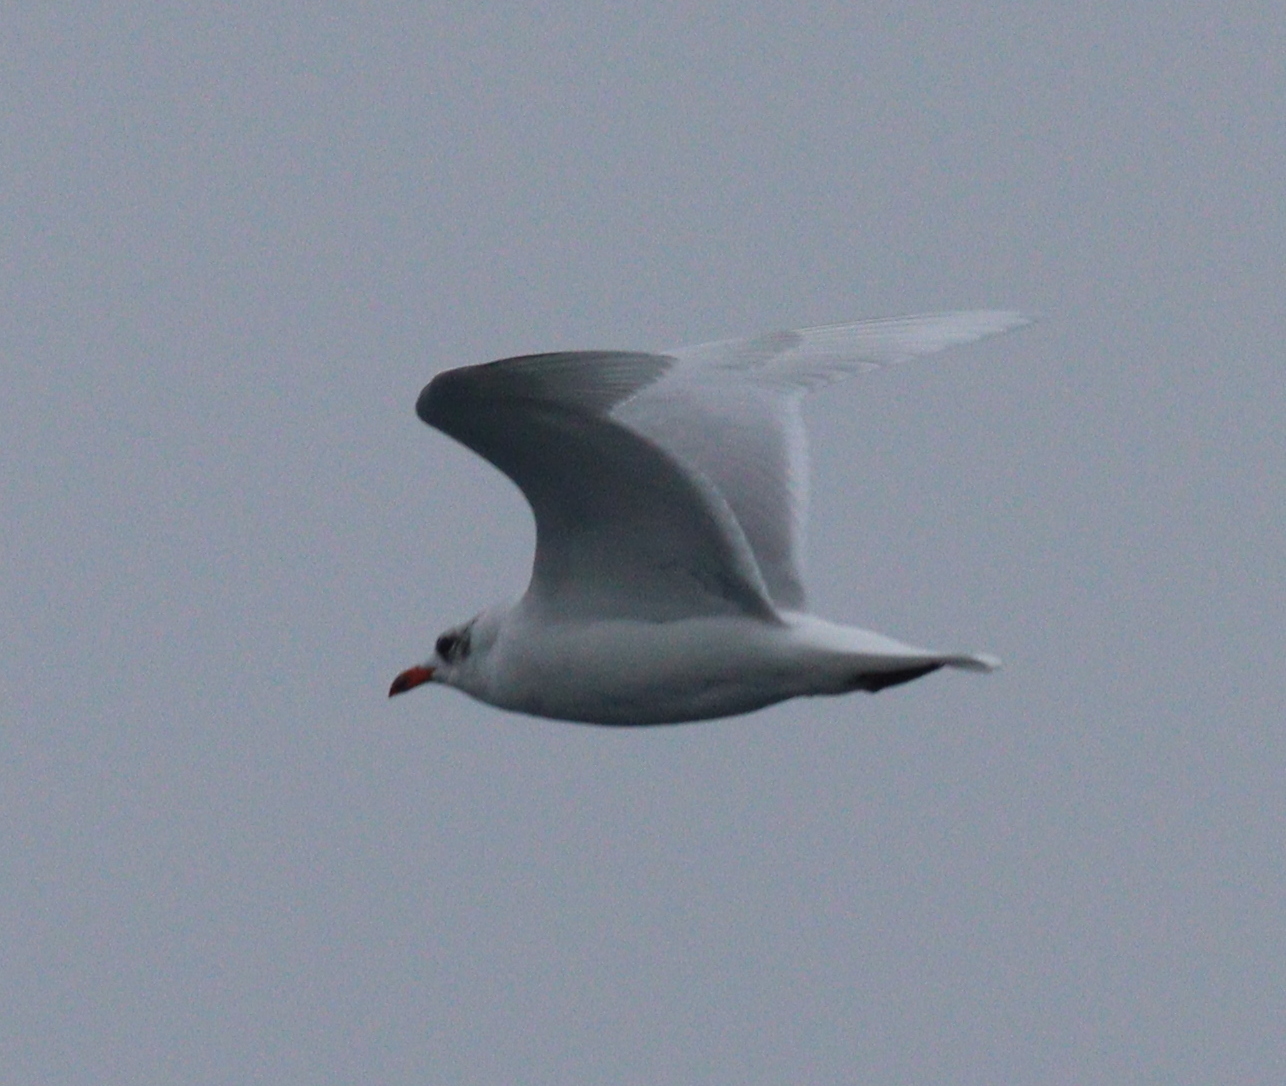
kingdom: Animalia
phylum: Chordata
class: Aves
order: Charadriiformes
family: Laridae
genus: Ichthyaetus
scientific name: Ichthyaetus melanocephalus
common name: Mediterranean gull
